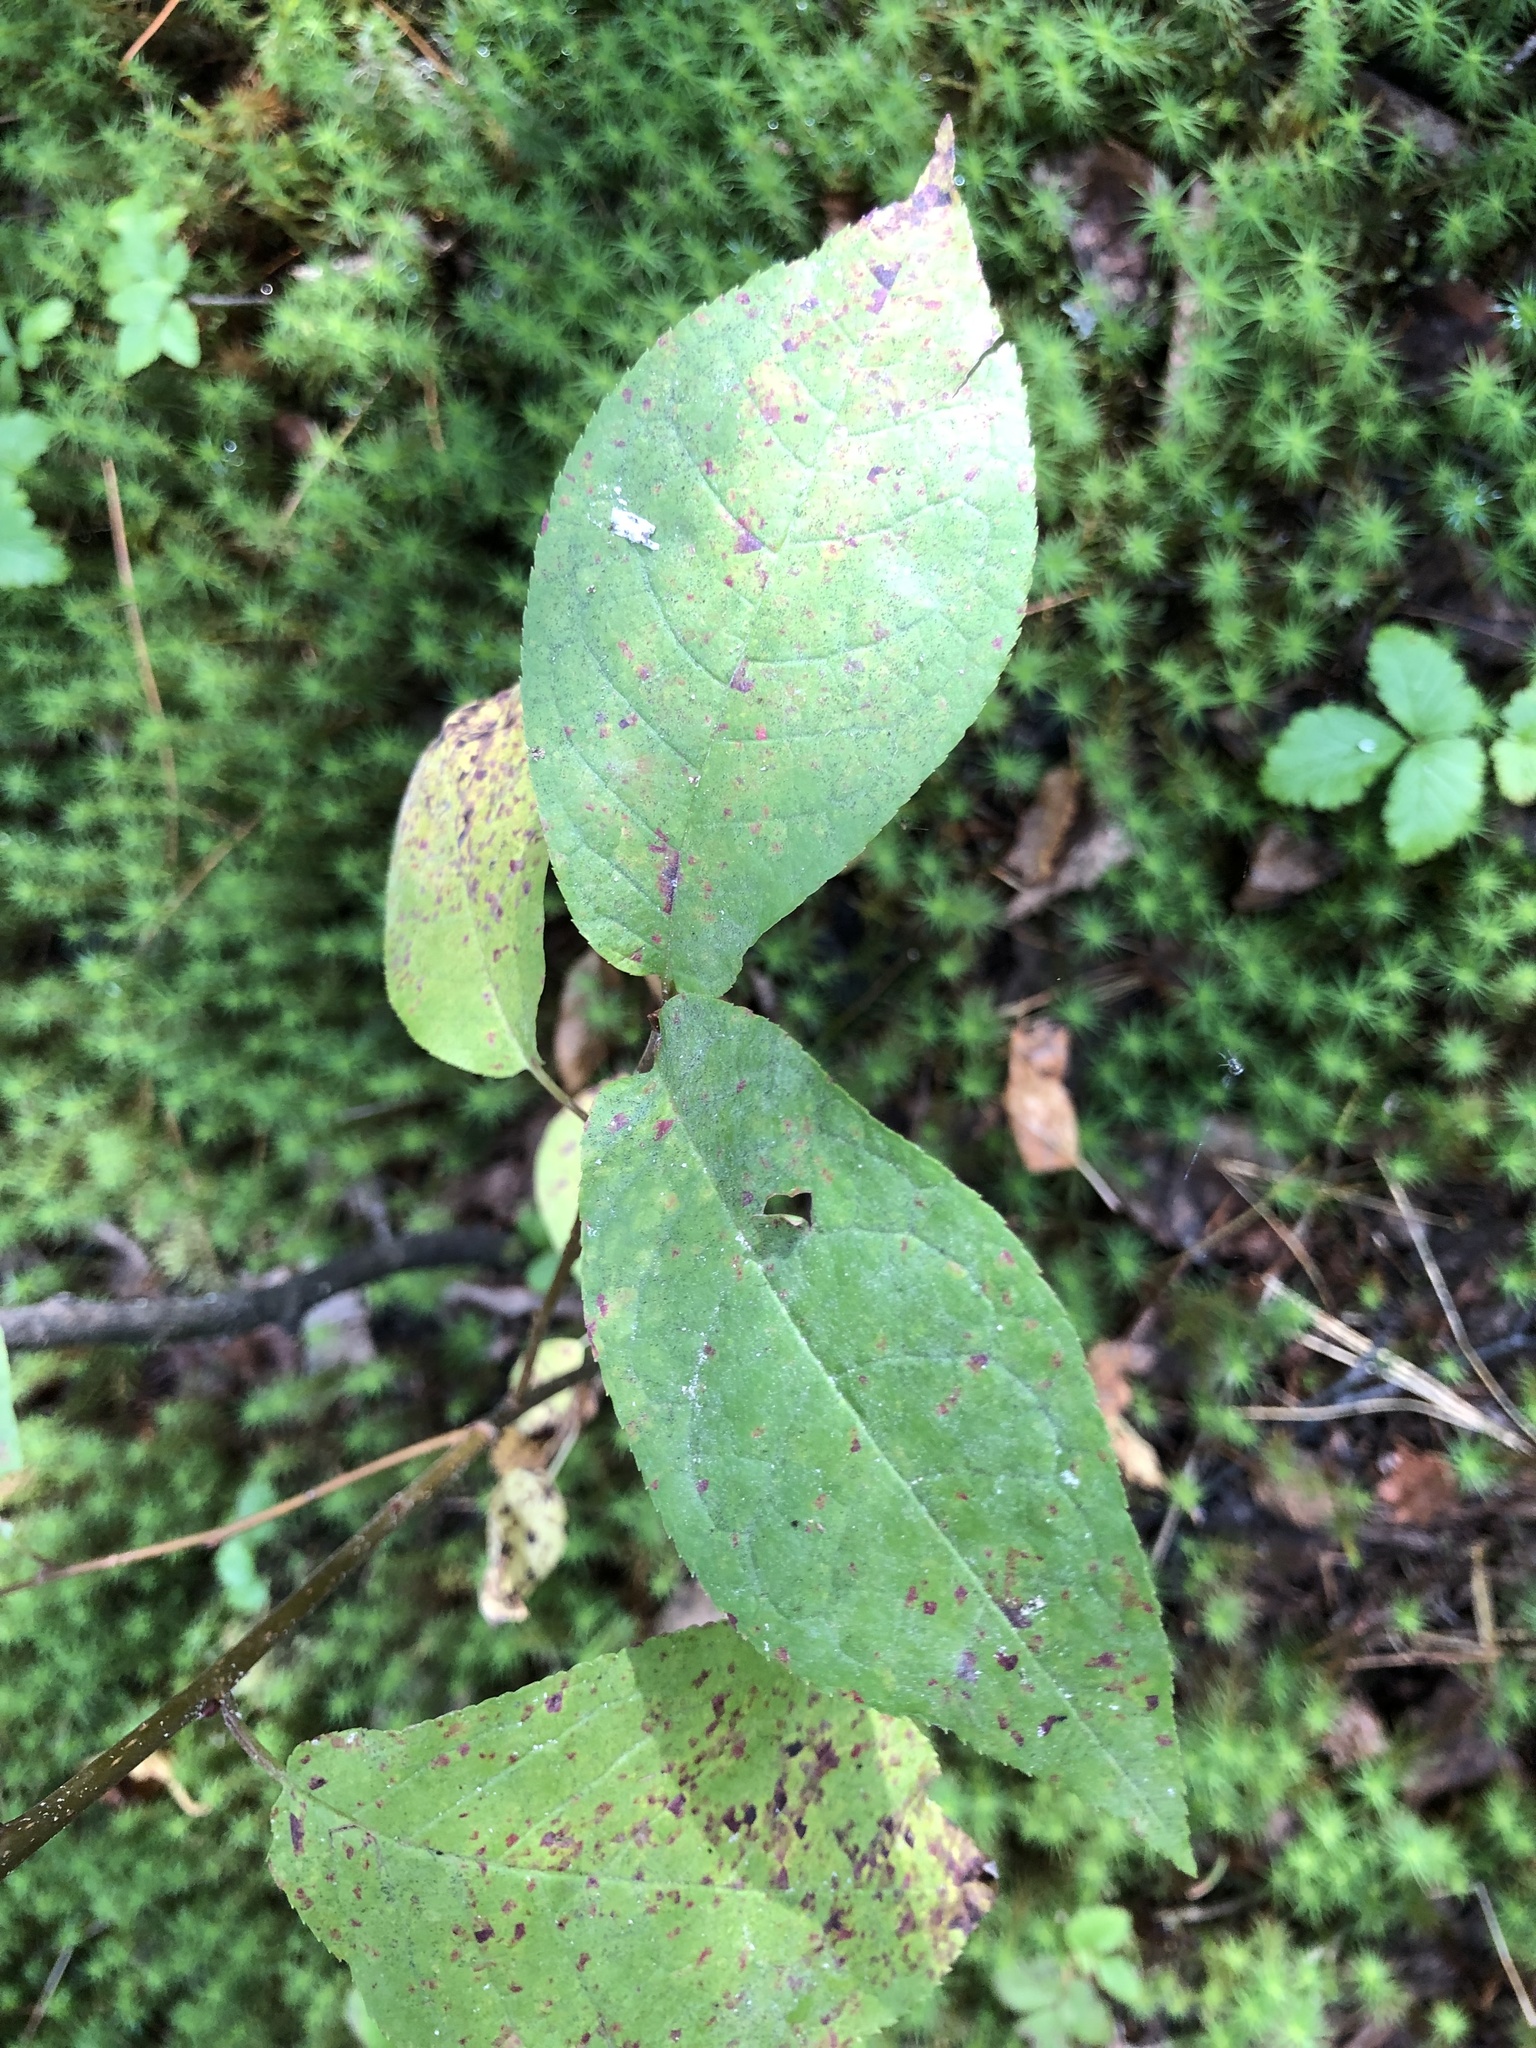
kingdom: Plantae
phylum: Tracheophyta
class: Magnoliopsida
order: Rosales
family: Rosaceae
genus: Prunus
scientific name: Prunus padus
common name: Bird cherry
